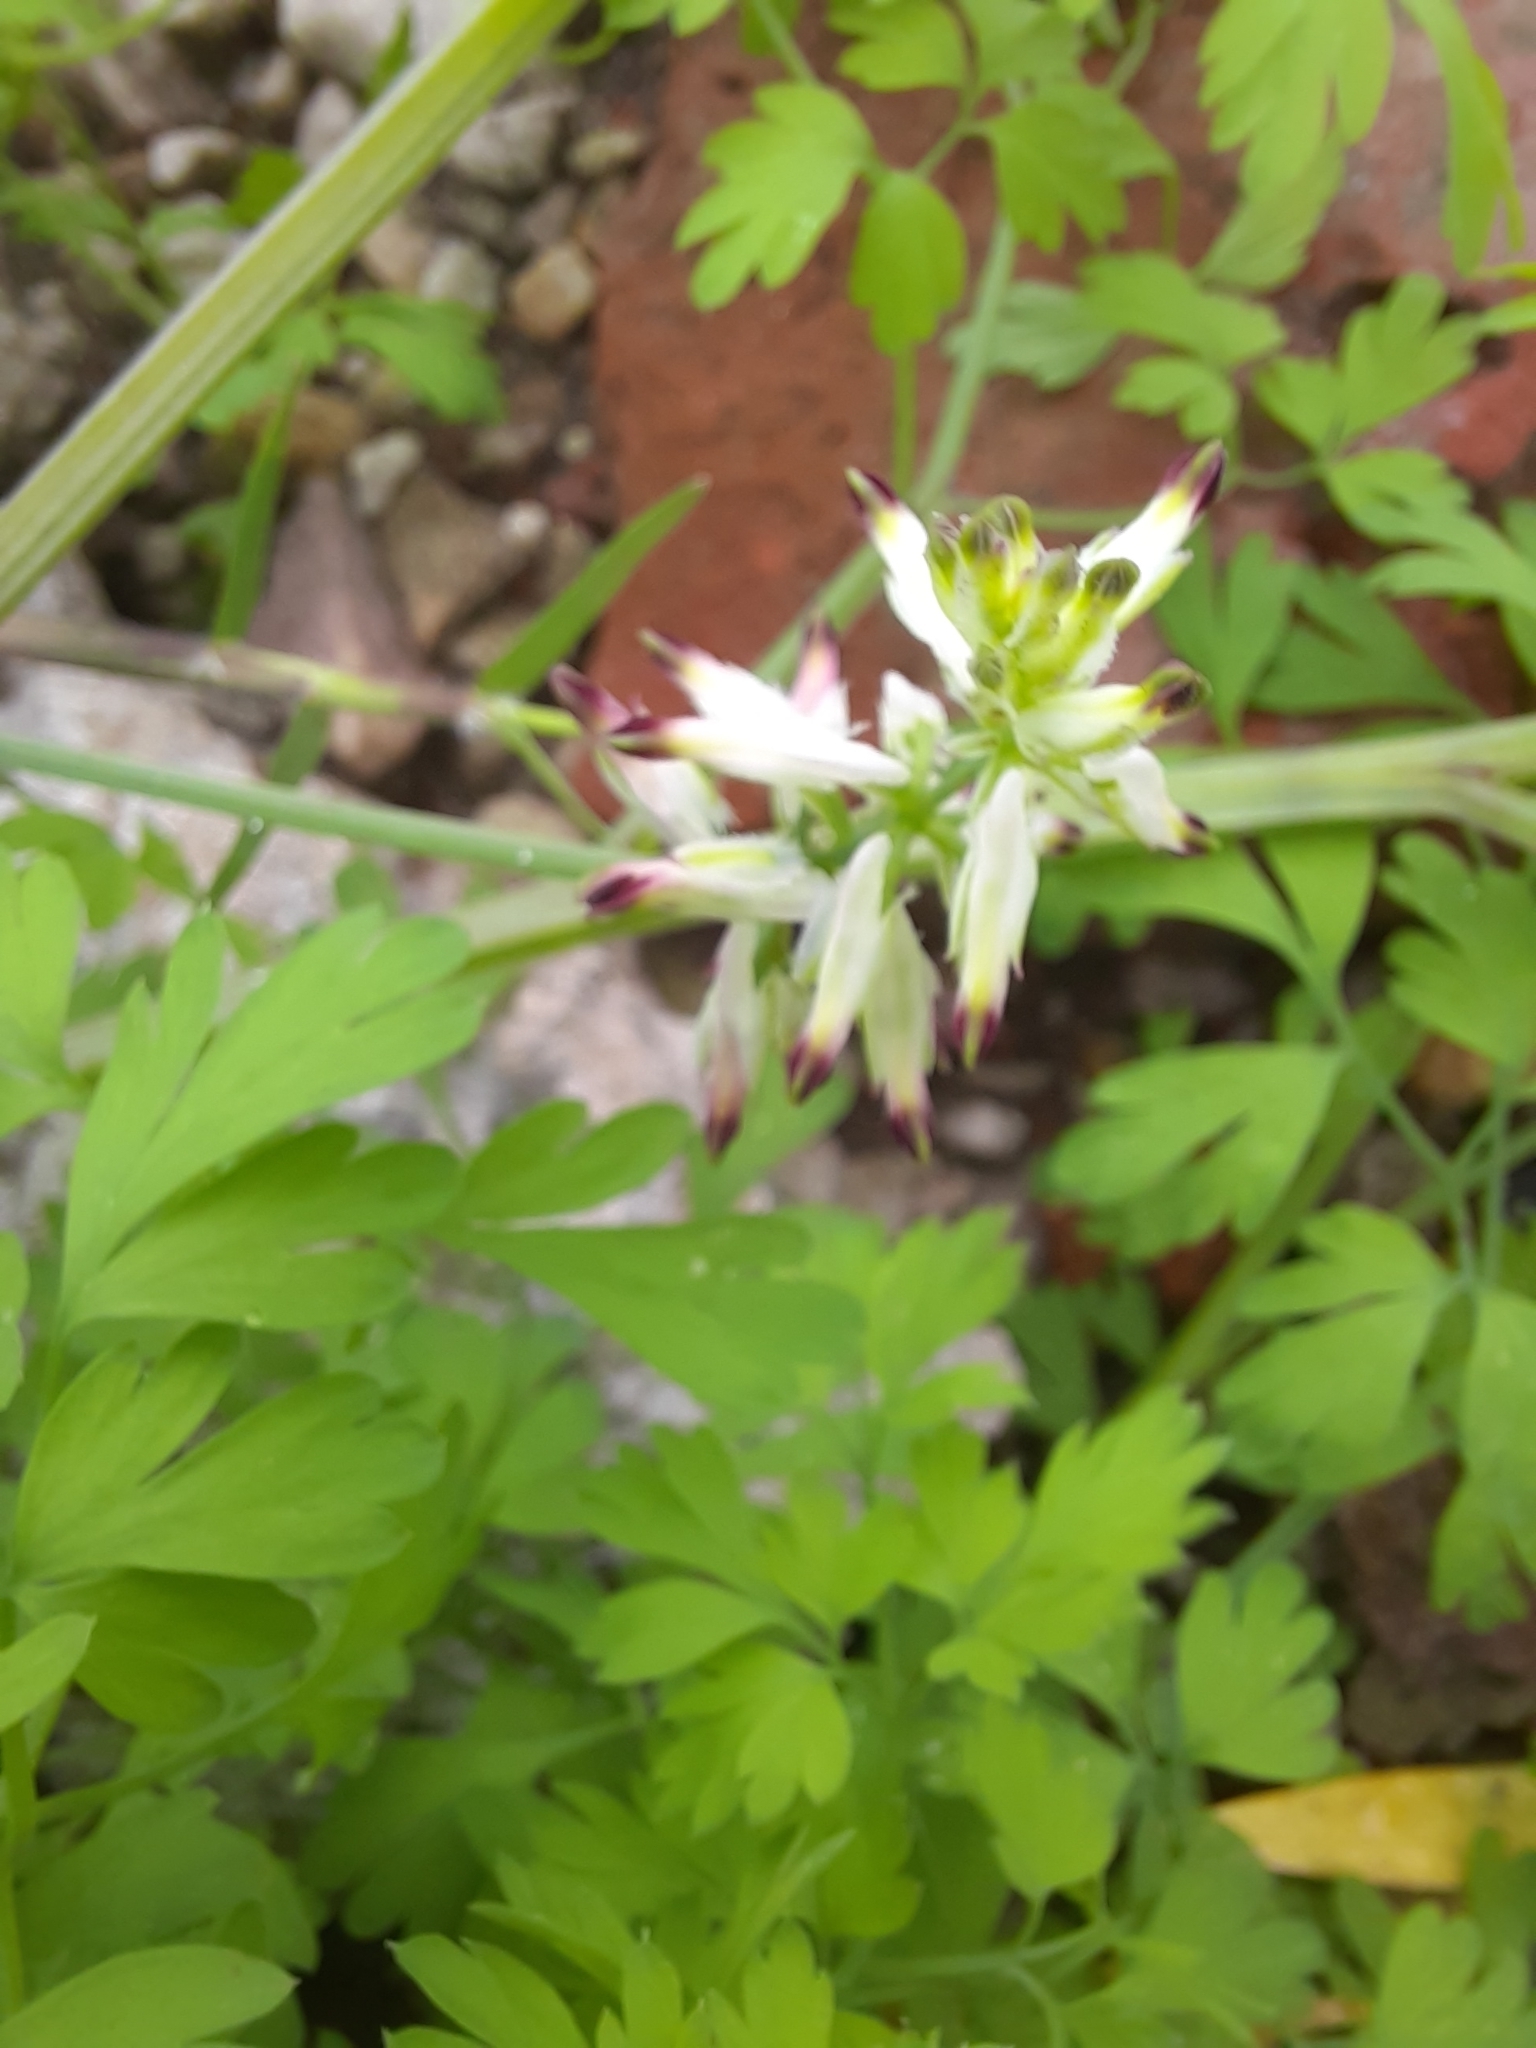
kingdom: Plantae
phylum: Tracheophyta
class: Magnoliopsida
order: Ranunculales
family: Papaveraceae
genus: Fumaria
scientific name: Fumaria capreolata
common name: White ramping-fumitory
